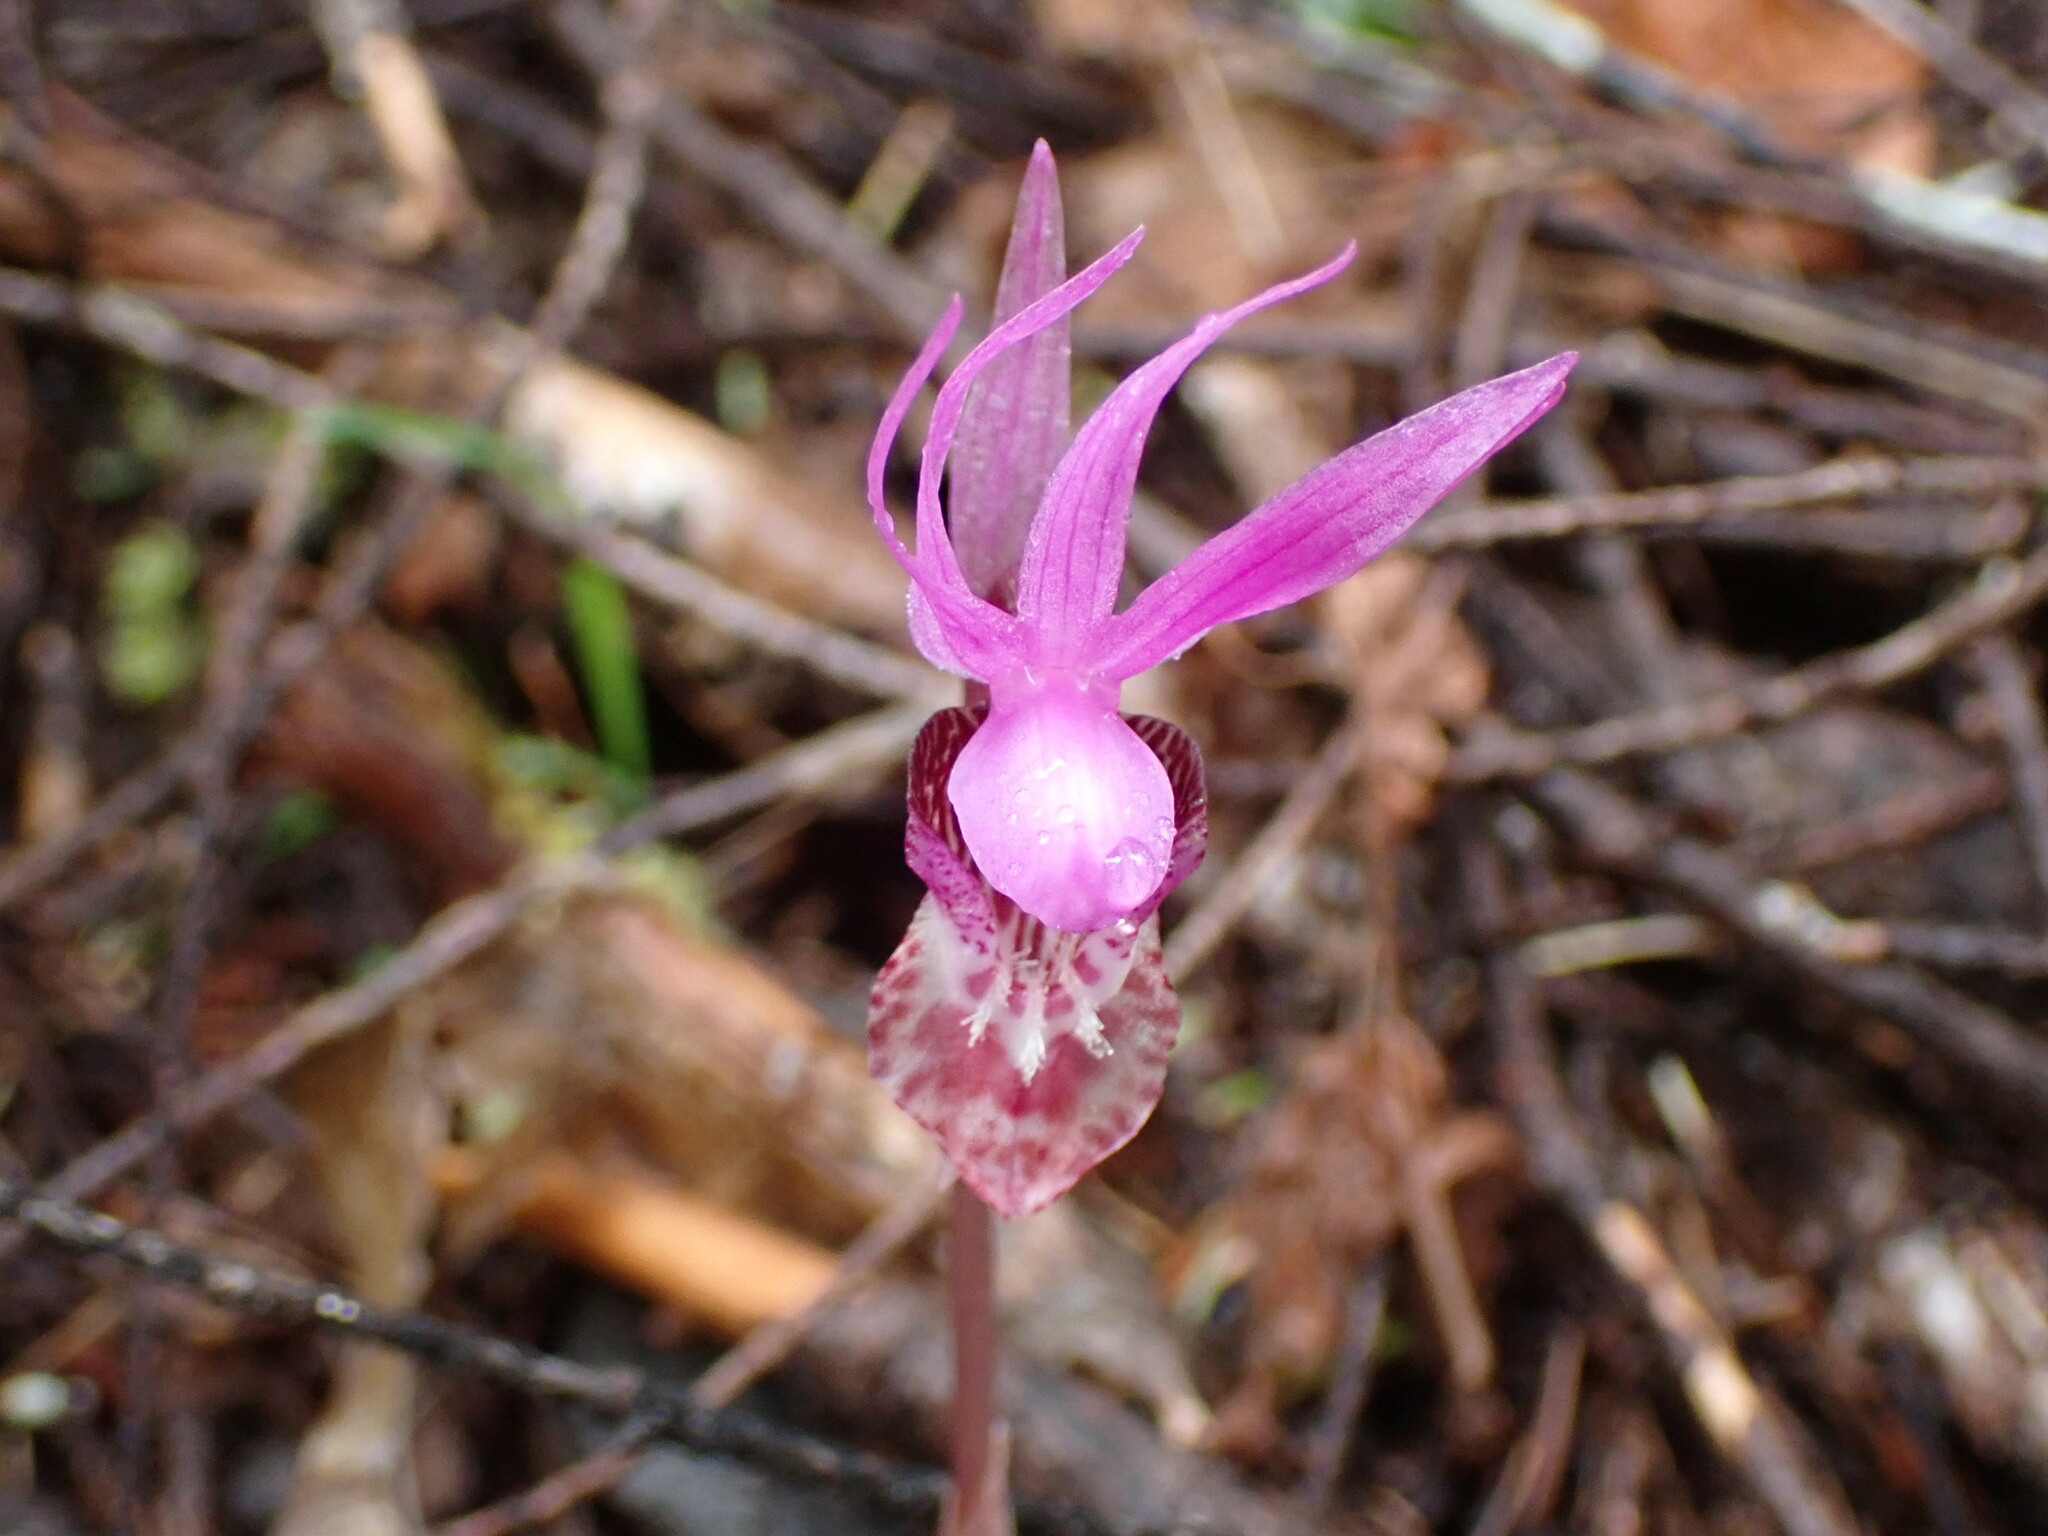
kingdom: Plantae
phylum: Tracheophyta
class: Liliopsida
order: Asparagales
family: Orchidaceae
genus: Calypso
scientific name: Calypso bulbosa
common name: Calypso
